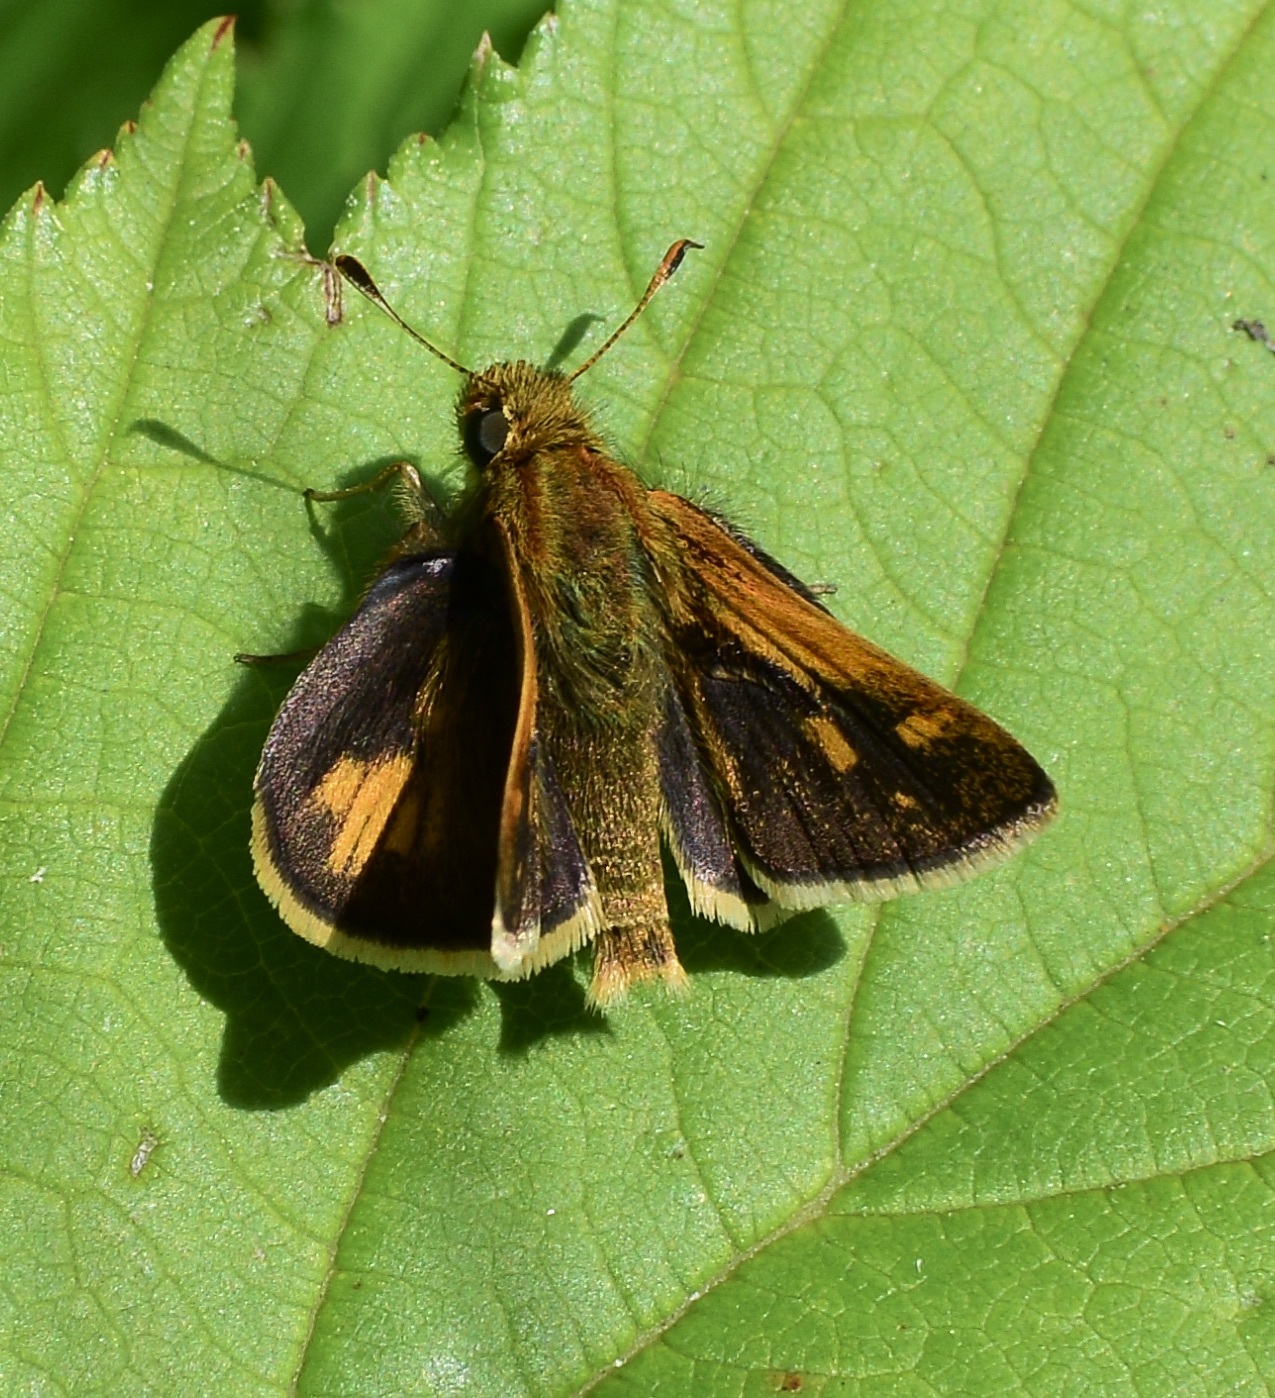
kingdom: Animalia
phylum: Arthropoda
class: Insecta
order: Lepidoptera
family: Hesperiidae
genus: Polites
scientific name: Polites coras
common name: Peck's skipper
